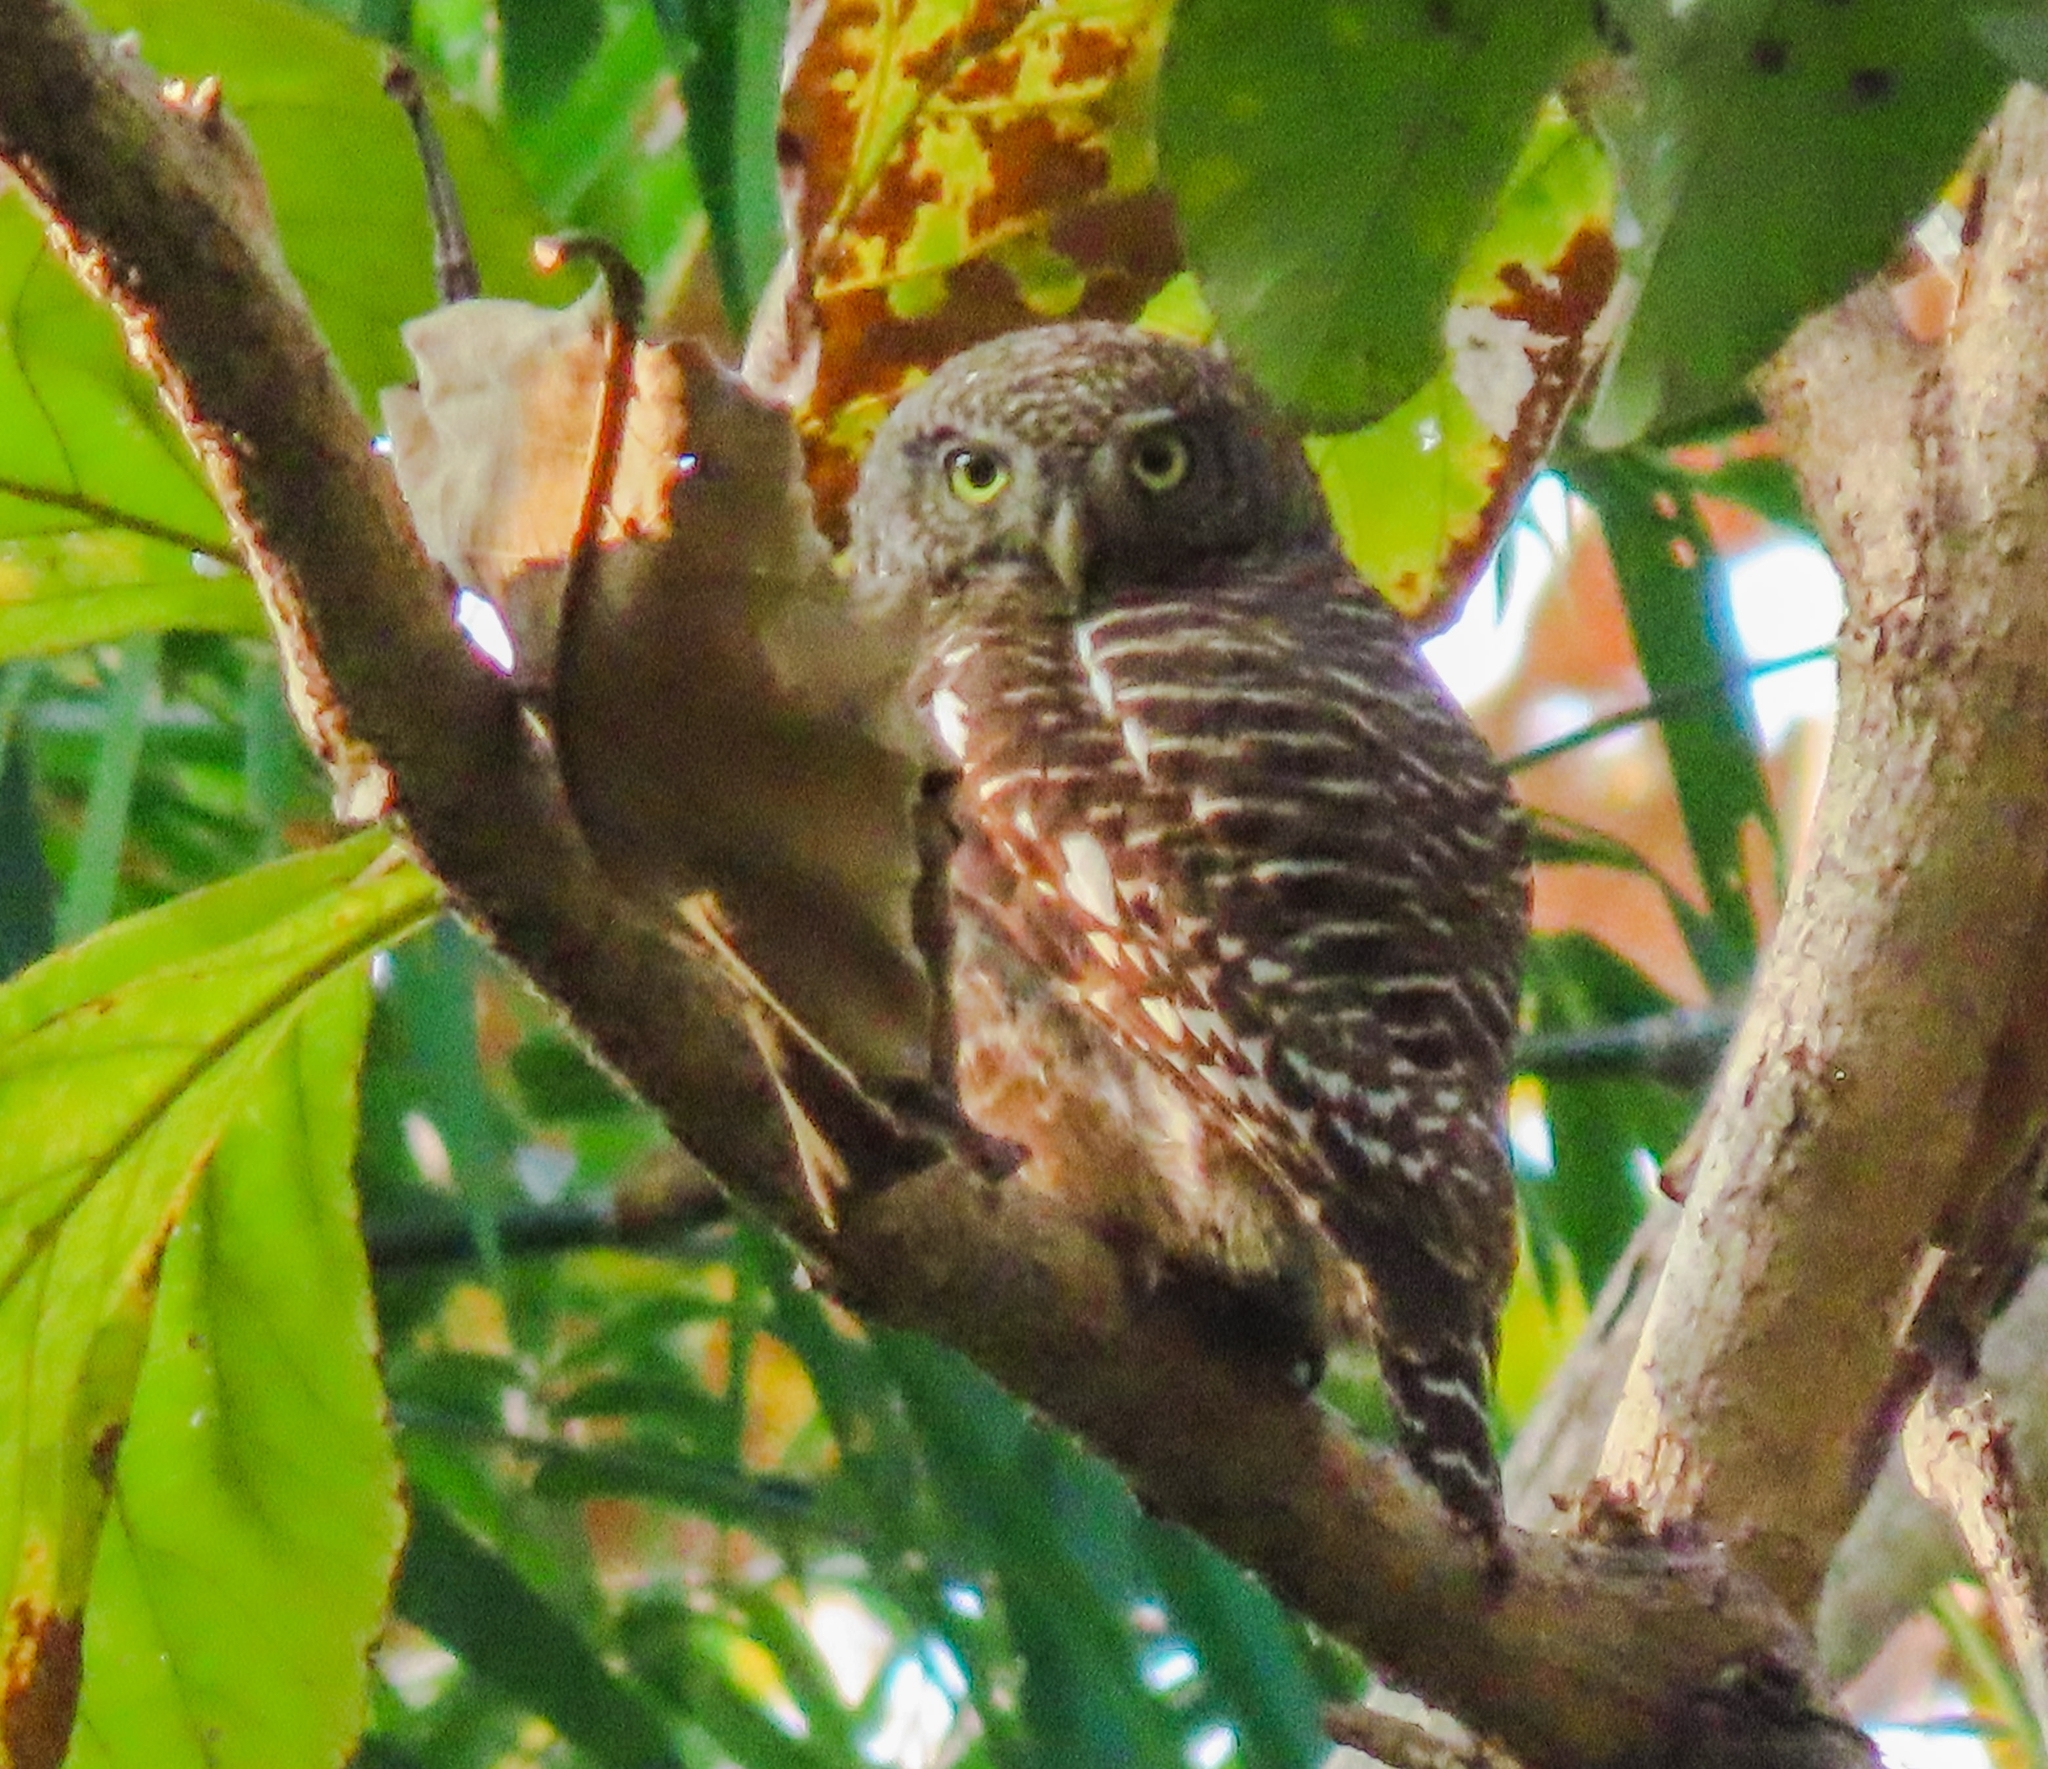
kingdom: Animalia
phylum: Chordata
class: Aves
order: Strigiformes
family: Strigidae
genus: Glaucidium
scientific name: Glaucidium cuculoides
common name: Asian barred owlet
